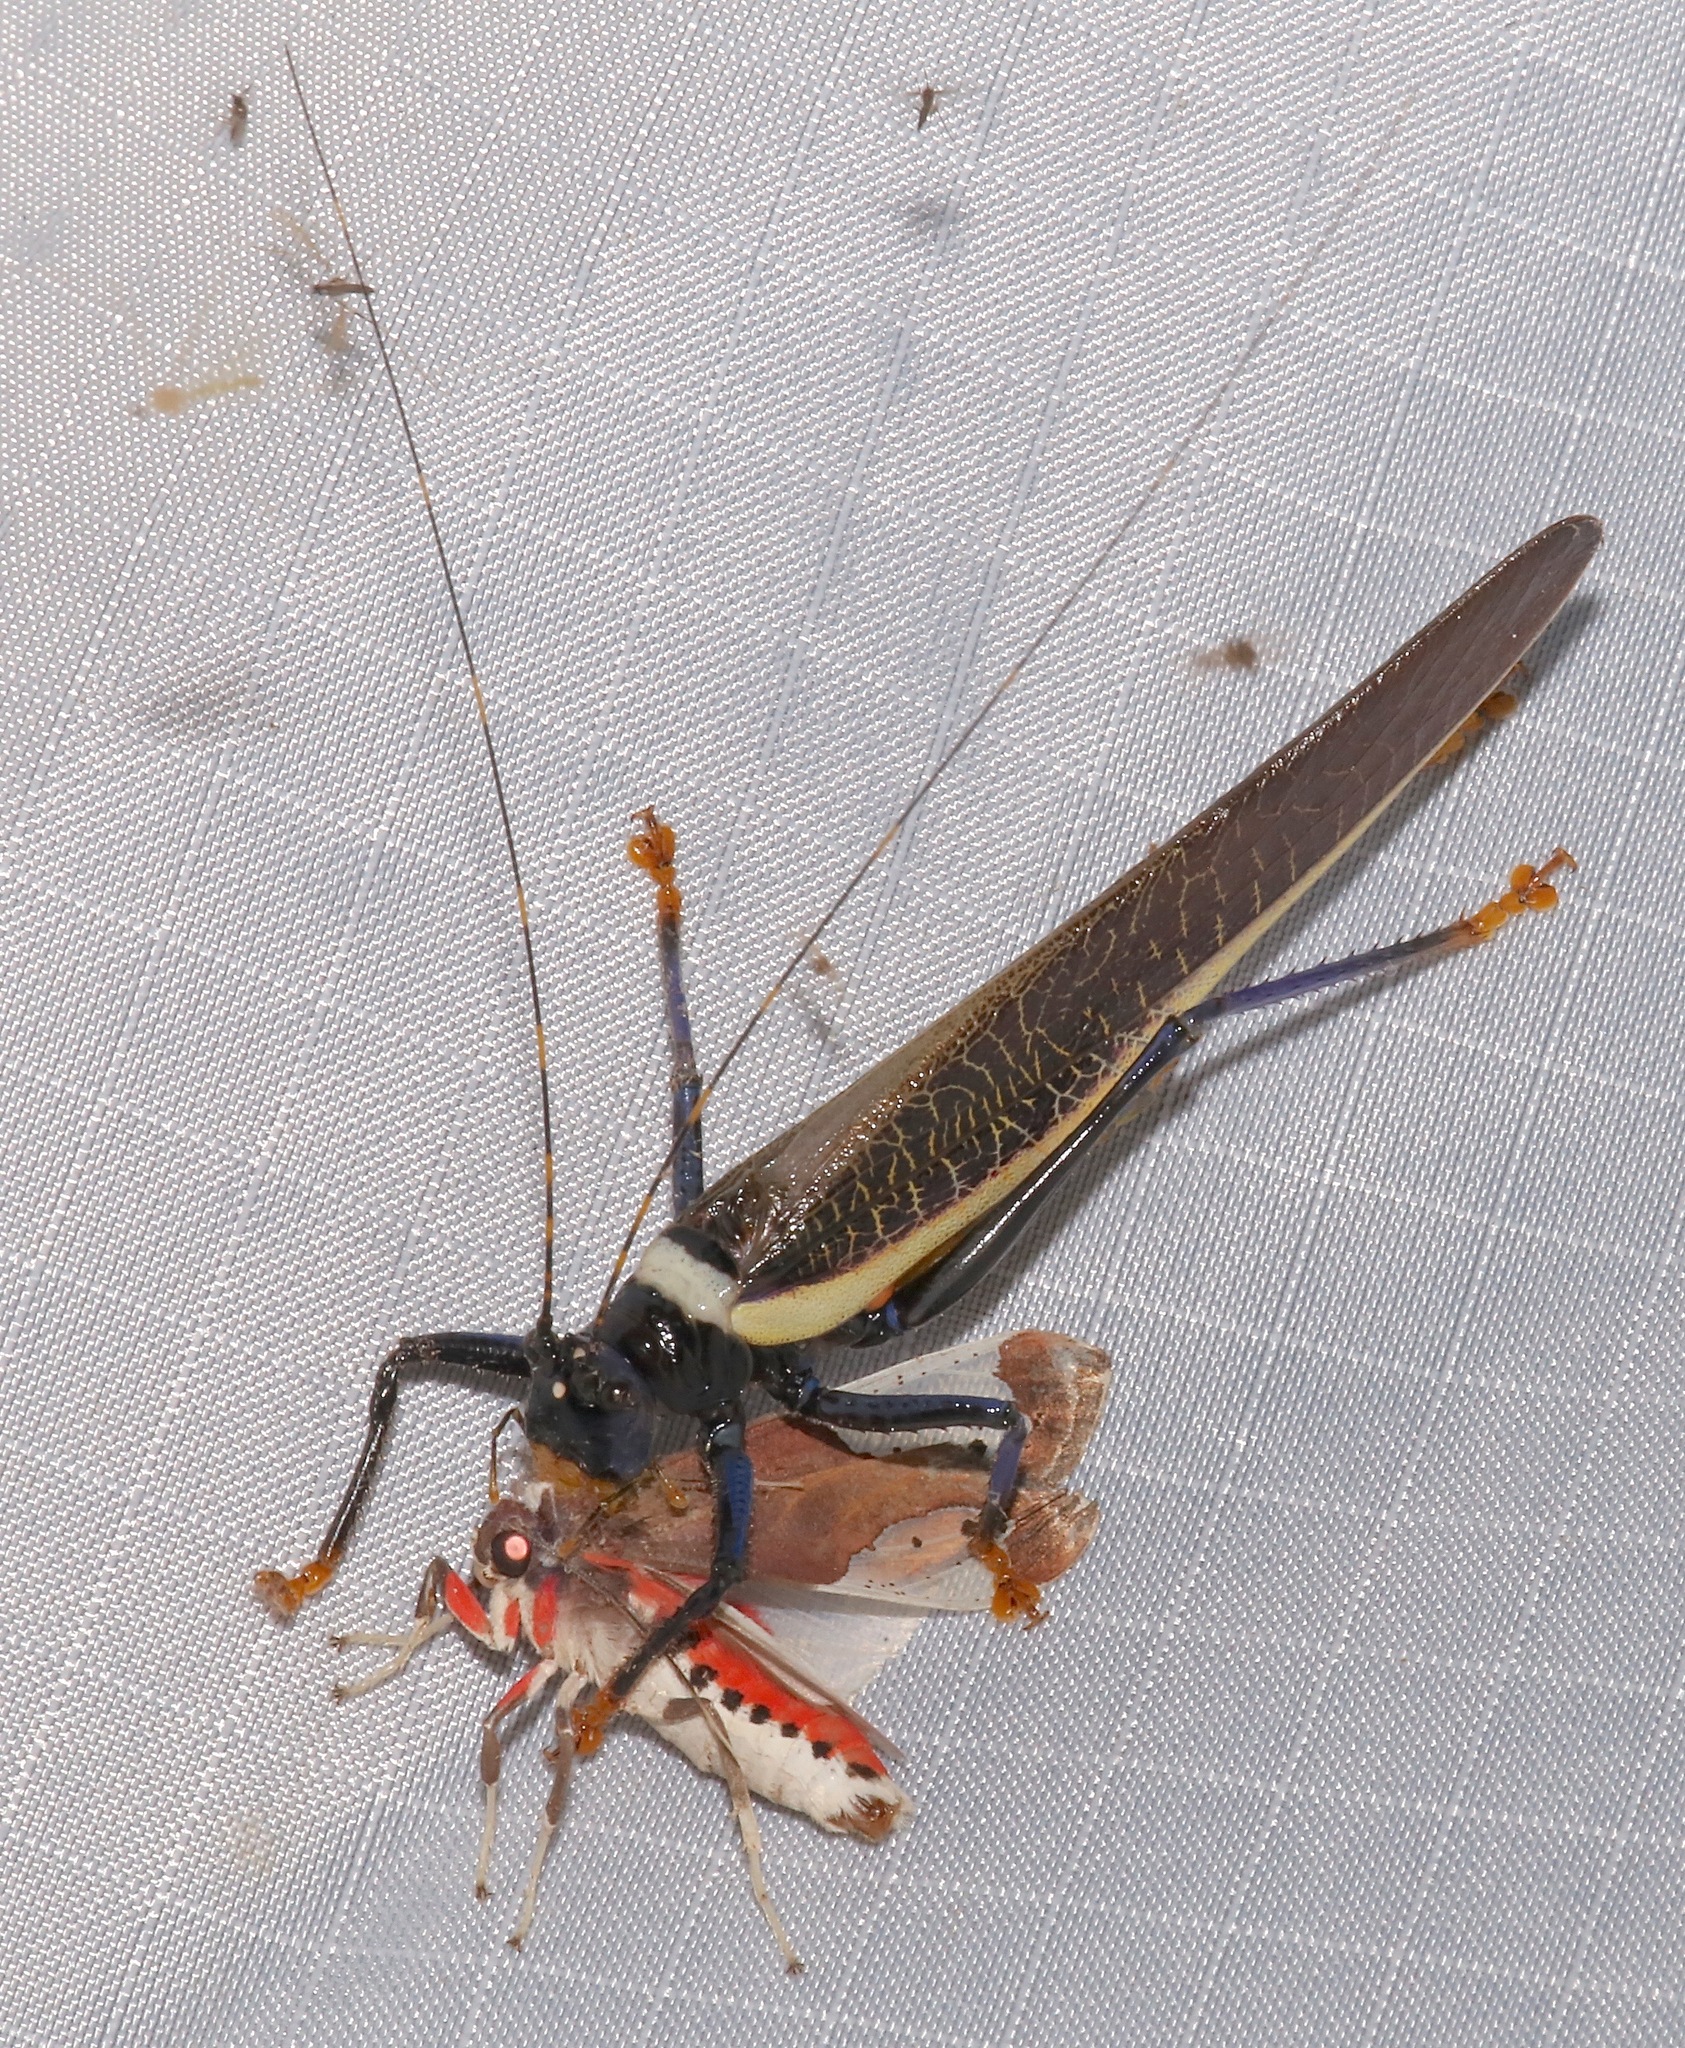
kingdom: Animalia
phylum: Arthropoda
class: Insecta
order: Orthoptera
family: Tettigoniidae
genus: Moncheca
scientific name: Moncheca elegans
